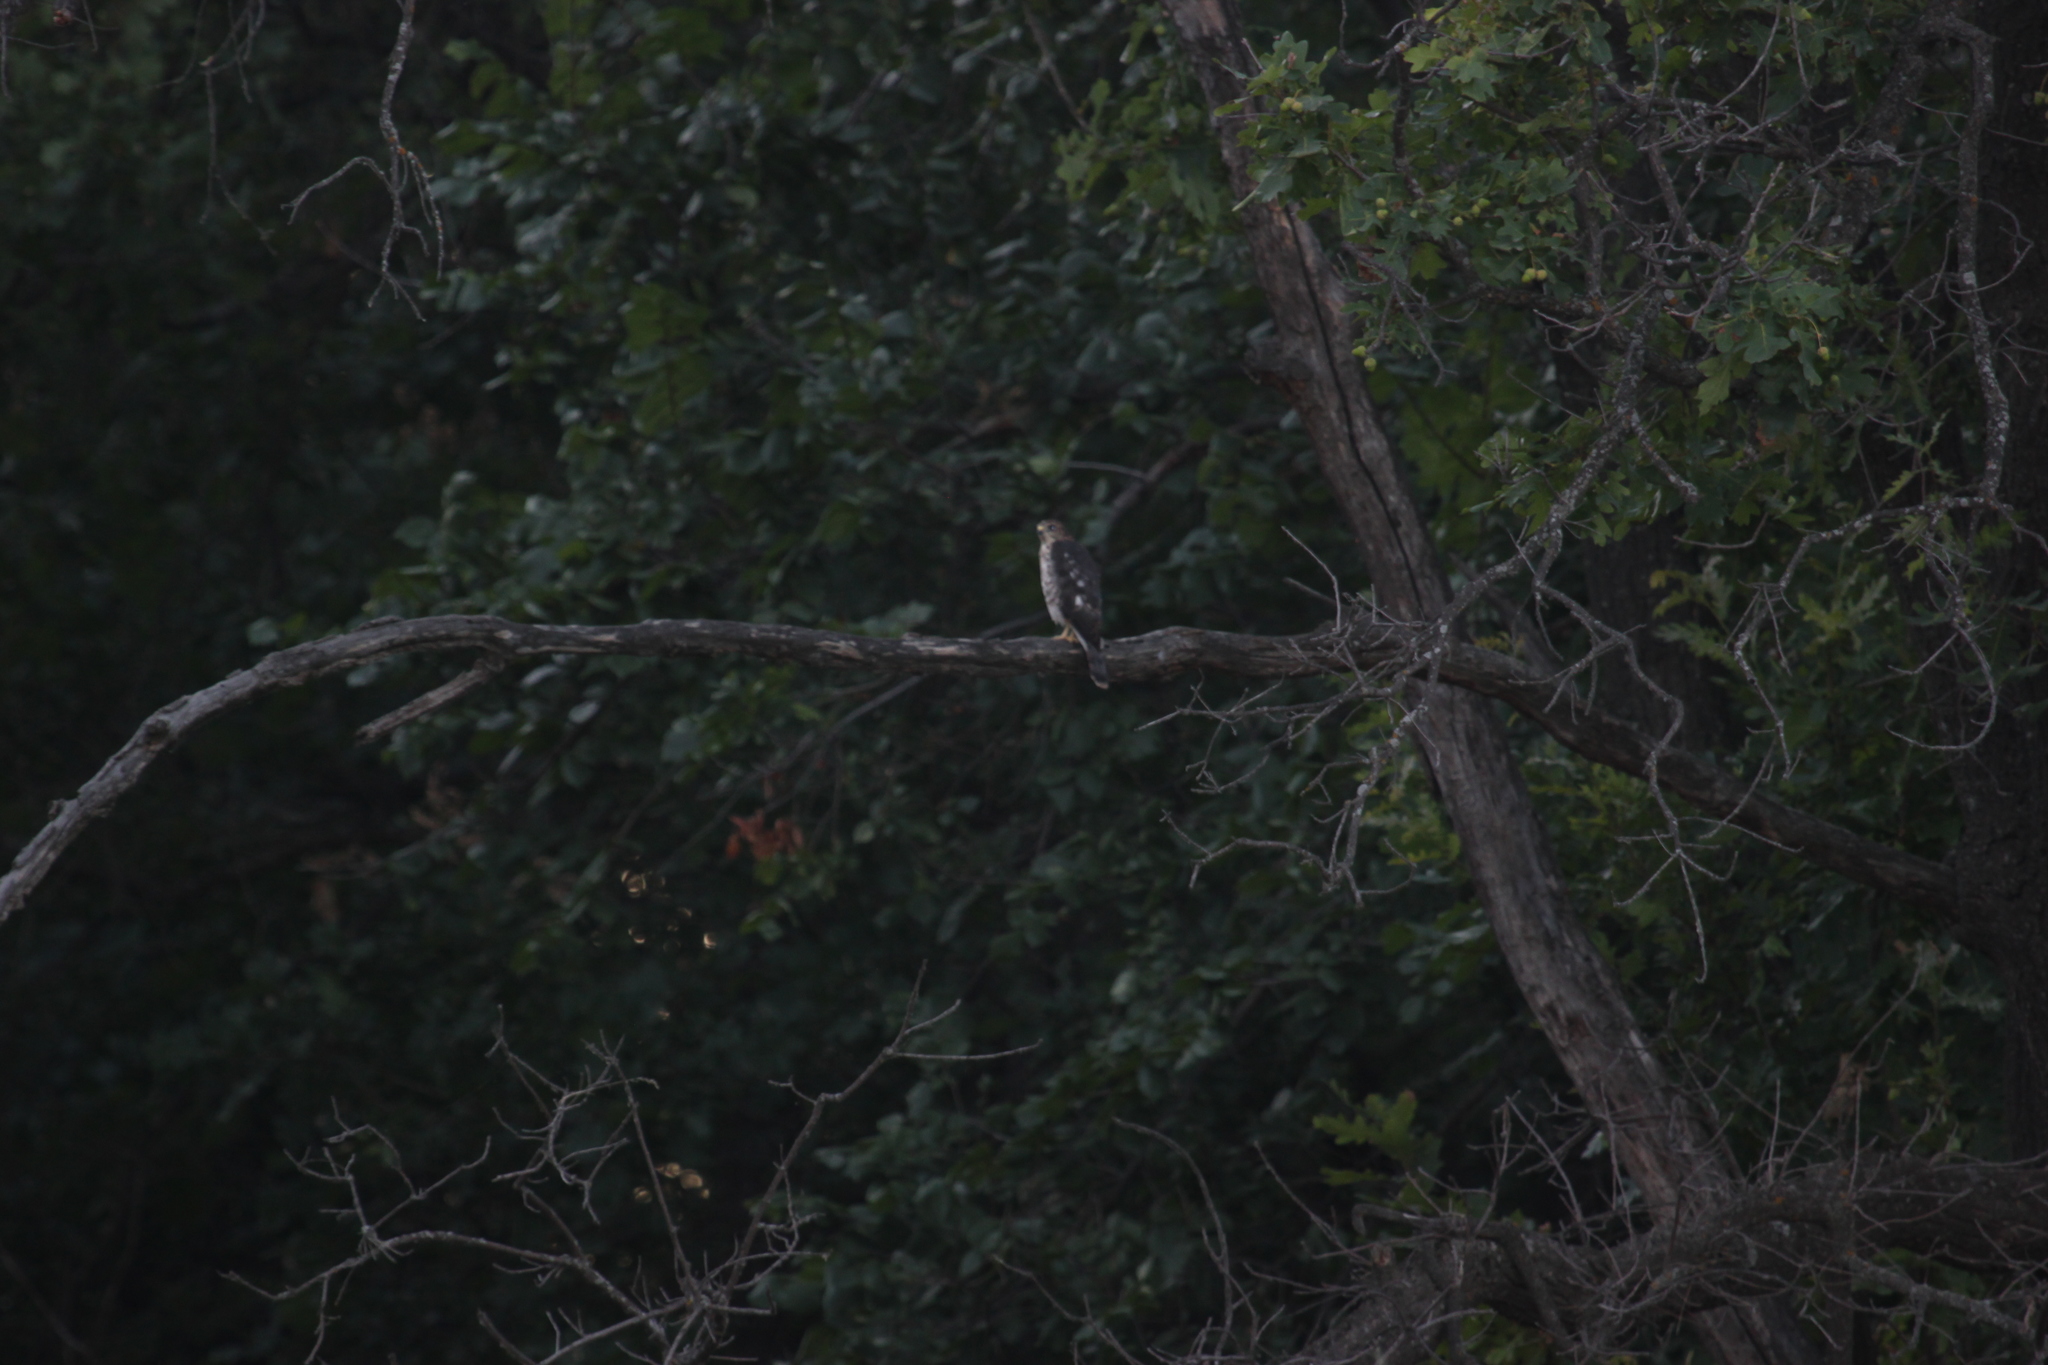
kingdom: Animalia
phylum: Chordata
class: Aves
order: Accipitriformes
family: Accipitridae
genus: Accipiter
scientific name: Accipiter brevipes
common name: Levant sparrowhawk
